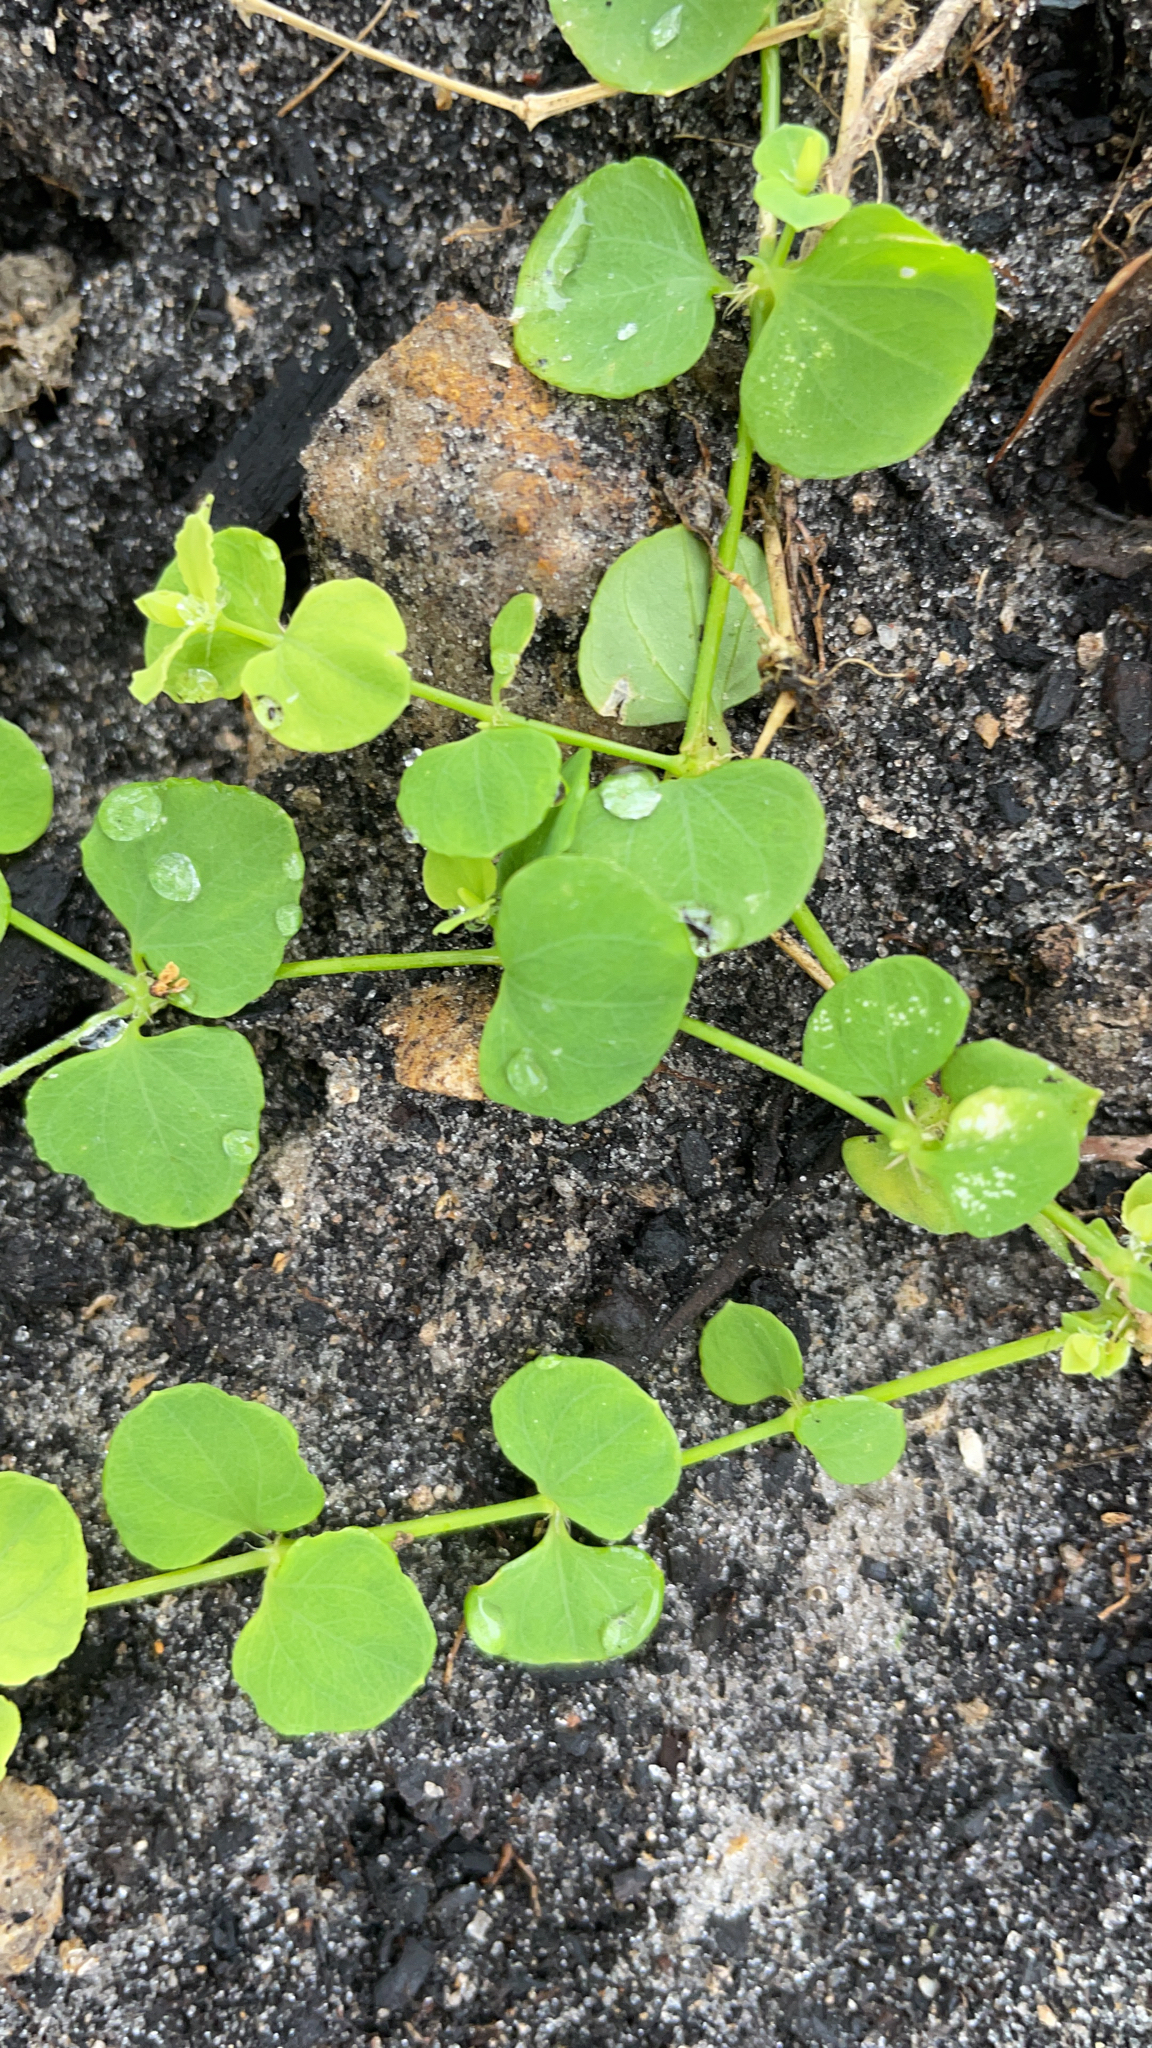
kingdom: Plantae
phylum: Tracheophyta
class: Magnoliopsida
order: Caryophyllales
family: Caryophyllaceae
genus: Drymaria
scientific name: Drymaria cordata
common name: Whitesnow
